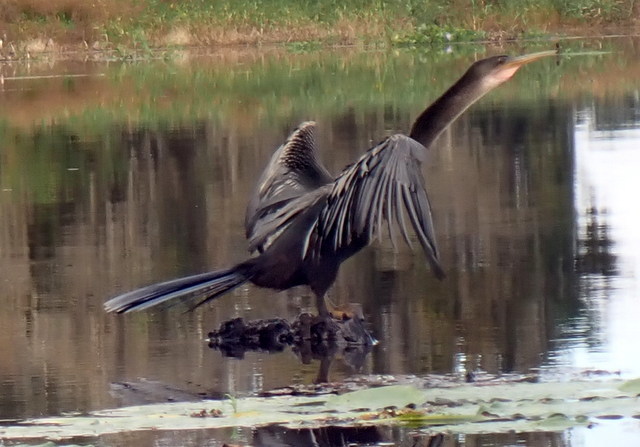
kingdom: Animalia
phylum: Chordata
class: Aves
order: Suliformes
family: Anhingidae
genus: Anhinga
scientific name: Anhinga anhinga
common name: Anhinga
